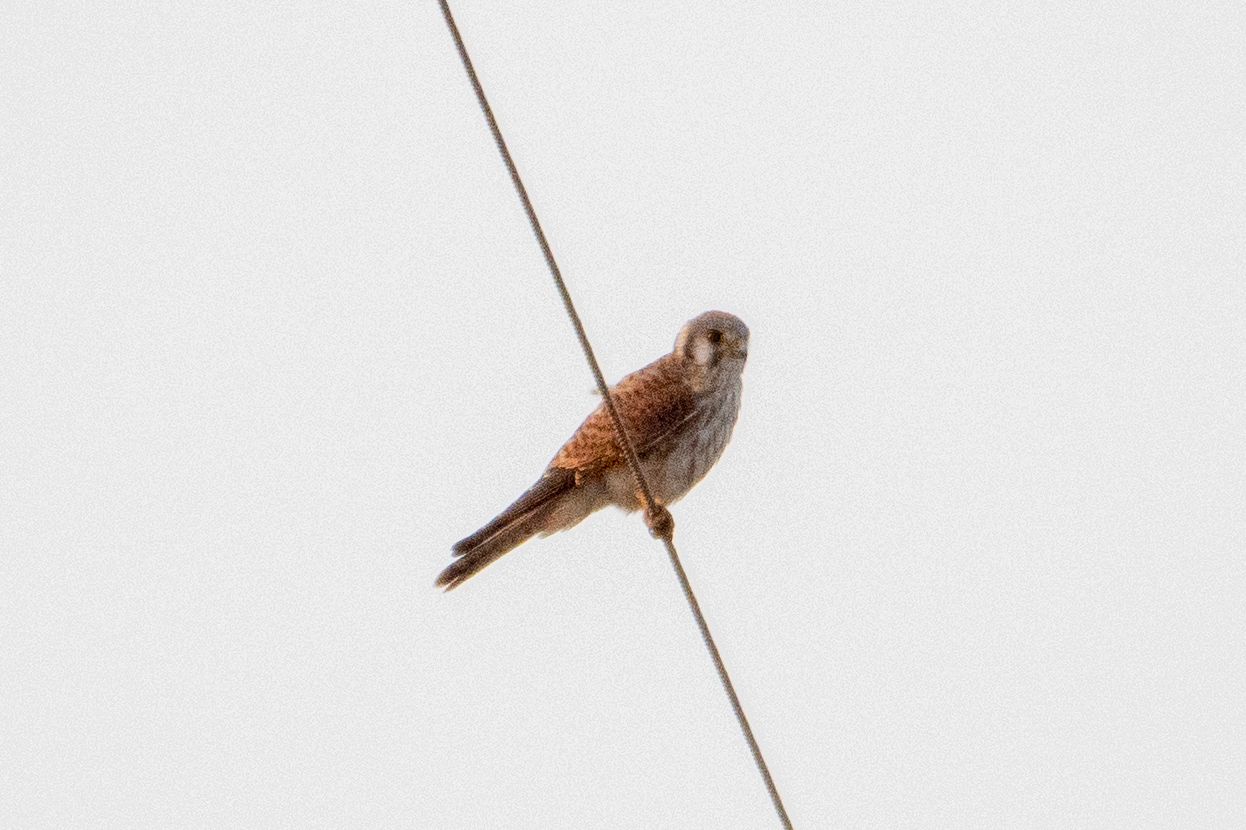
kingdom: Animalia
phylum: Chordata
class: Aves
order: Falconiformes
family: Falconidae
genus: Falco
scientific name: Falco sparverius
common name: American kestrel
